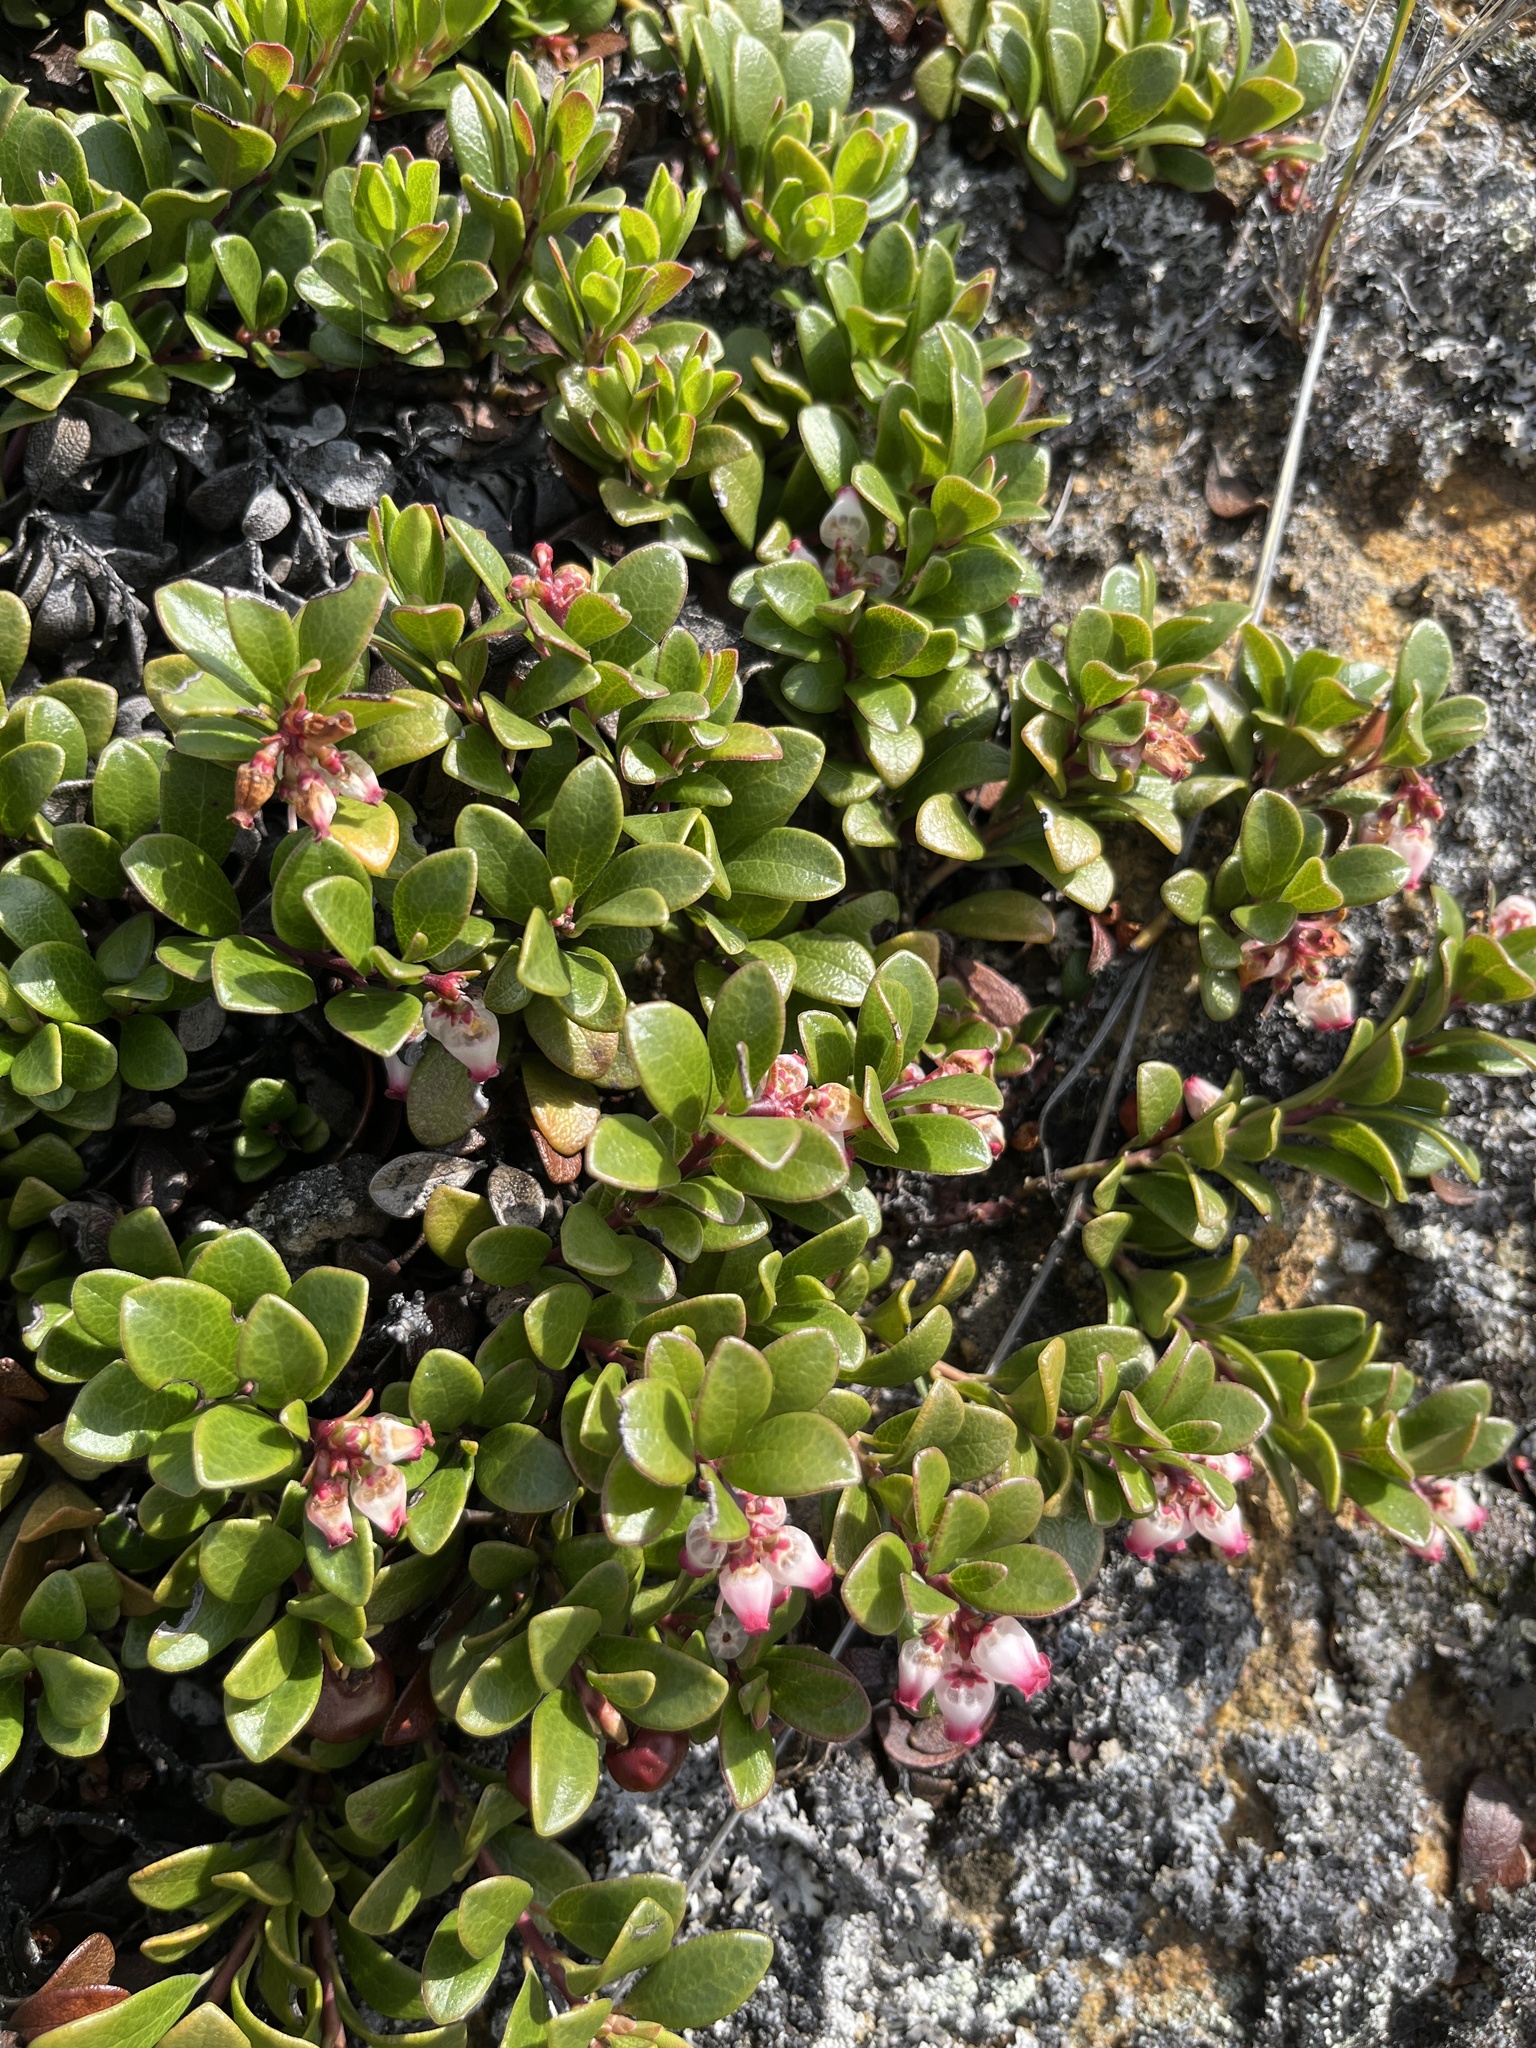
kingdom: Plantae
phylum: Tracheophyta
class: Magnoliopsida
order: Ericales
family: Ericaceae
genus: Arctostaphylos
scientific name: Arctostaphylos uva-ursi
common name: Bearberry
